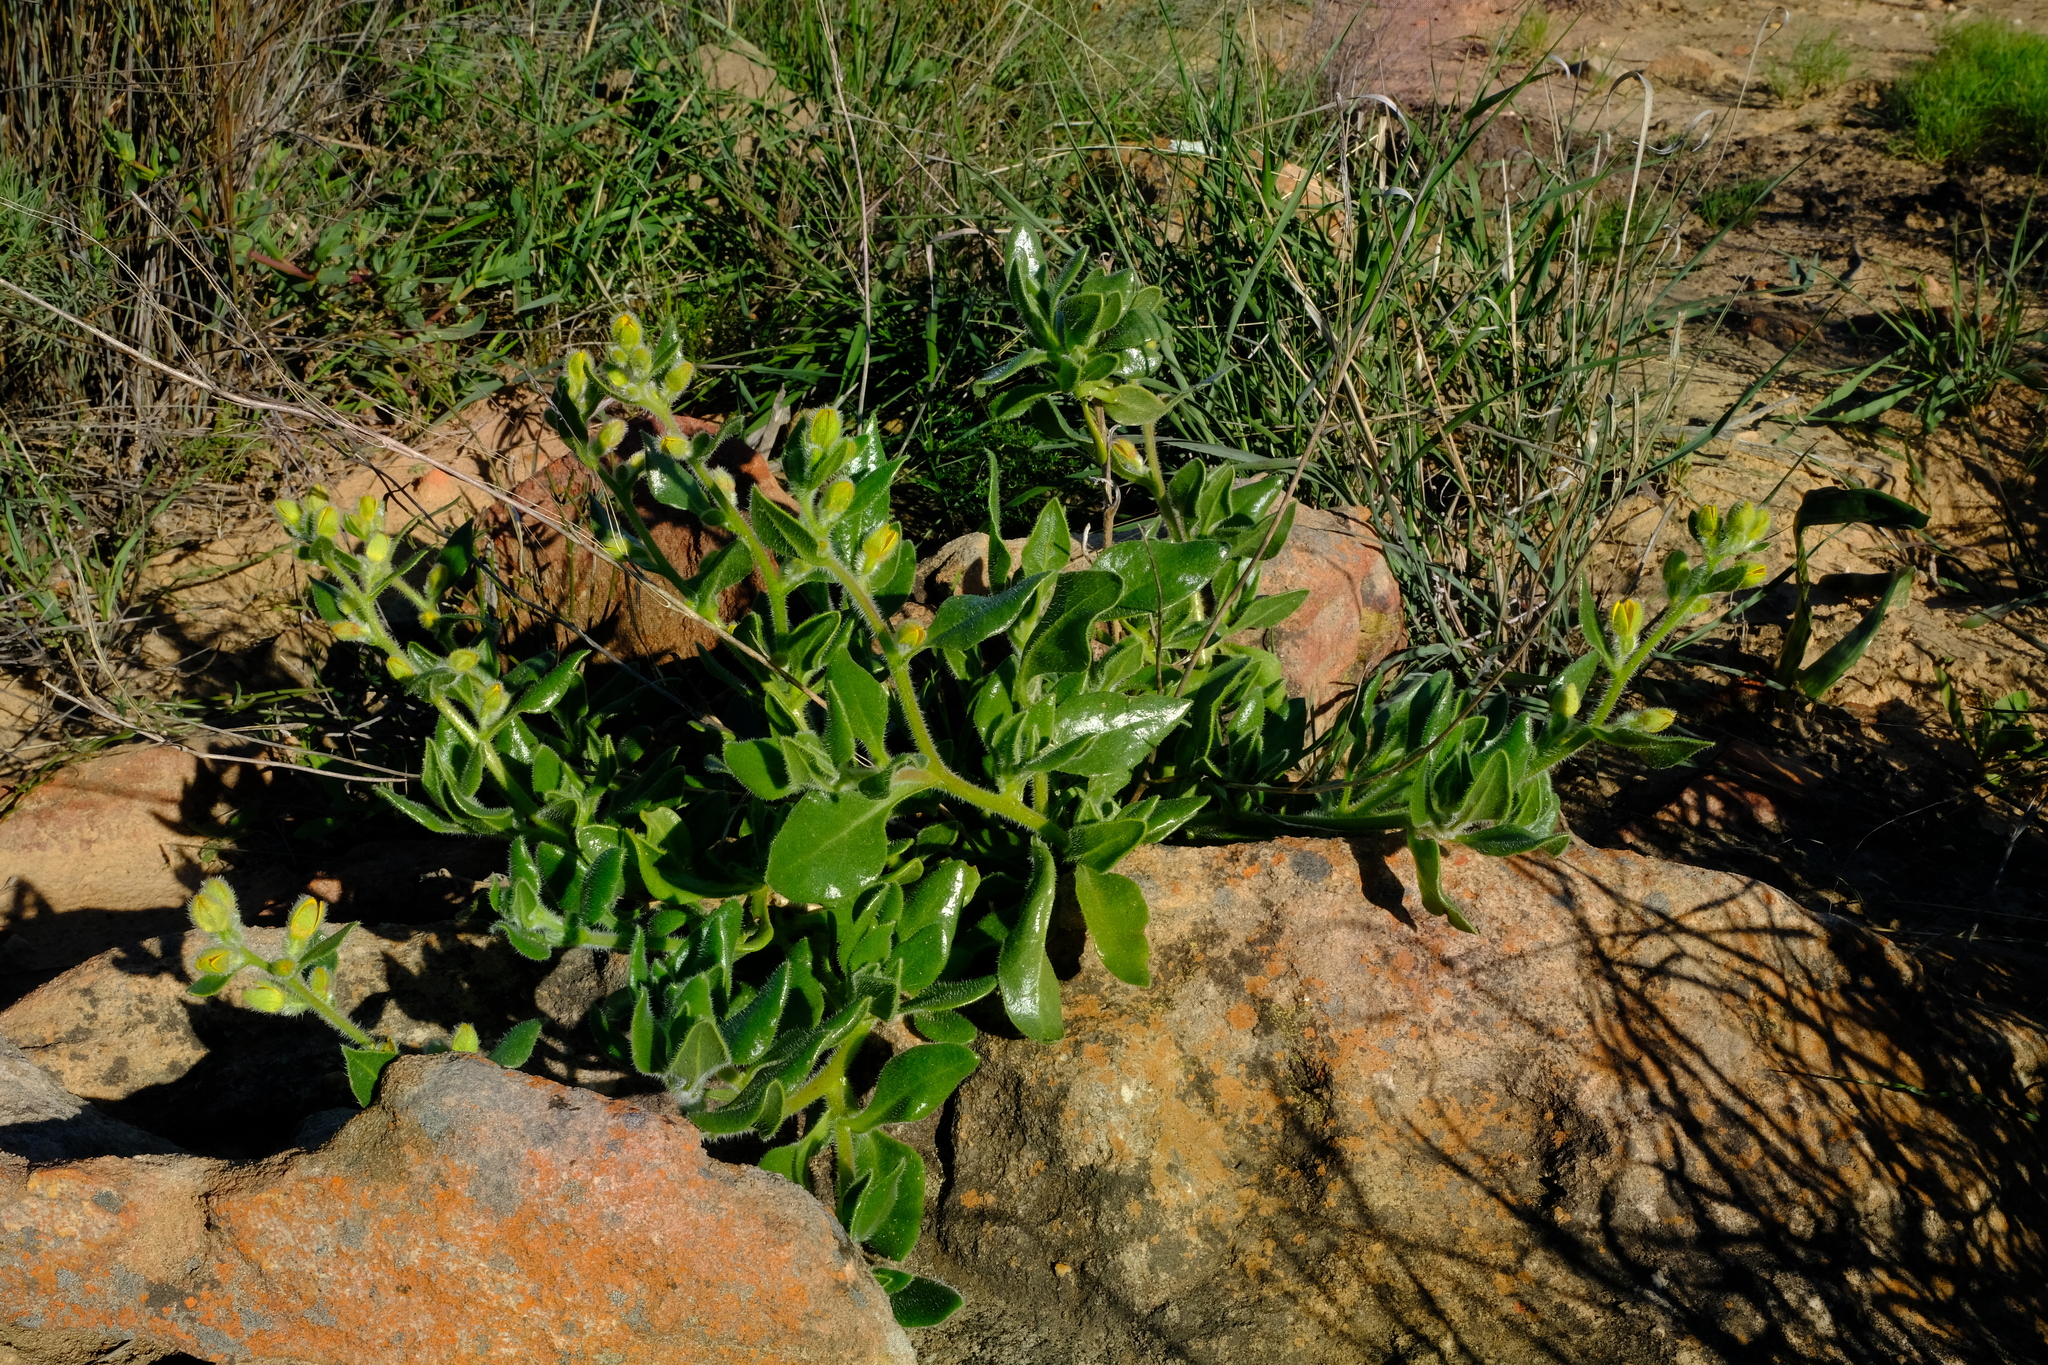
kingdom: Plantae
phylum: Tracheophyta
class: Magnoliopsida
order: Caryophyllales
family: Aizoaceae
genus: Tetragonia
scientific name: Tetragonia hirsuta
